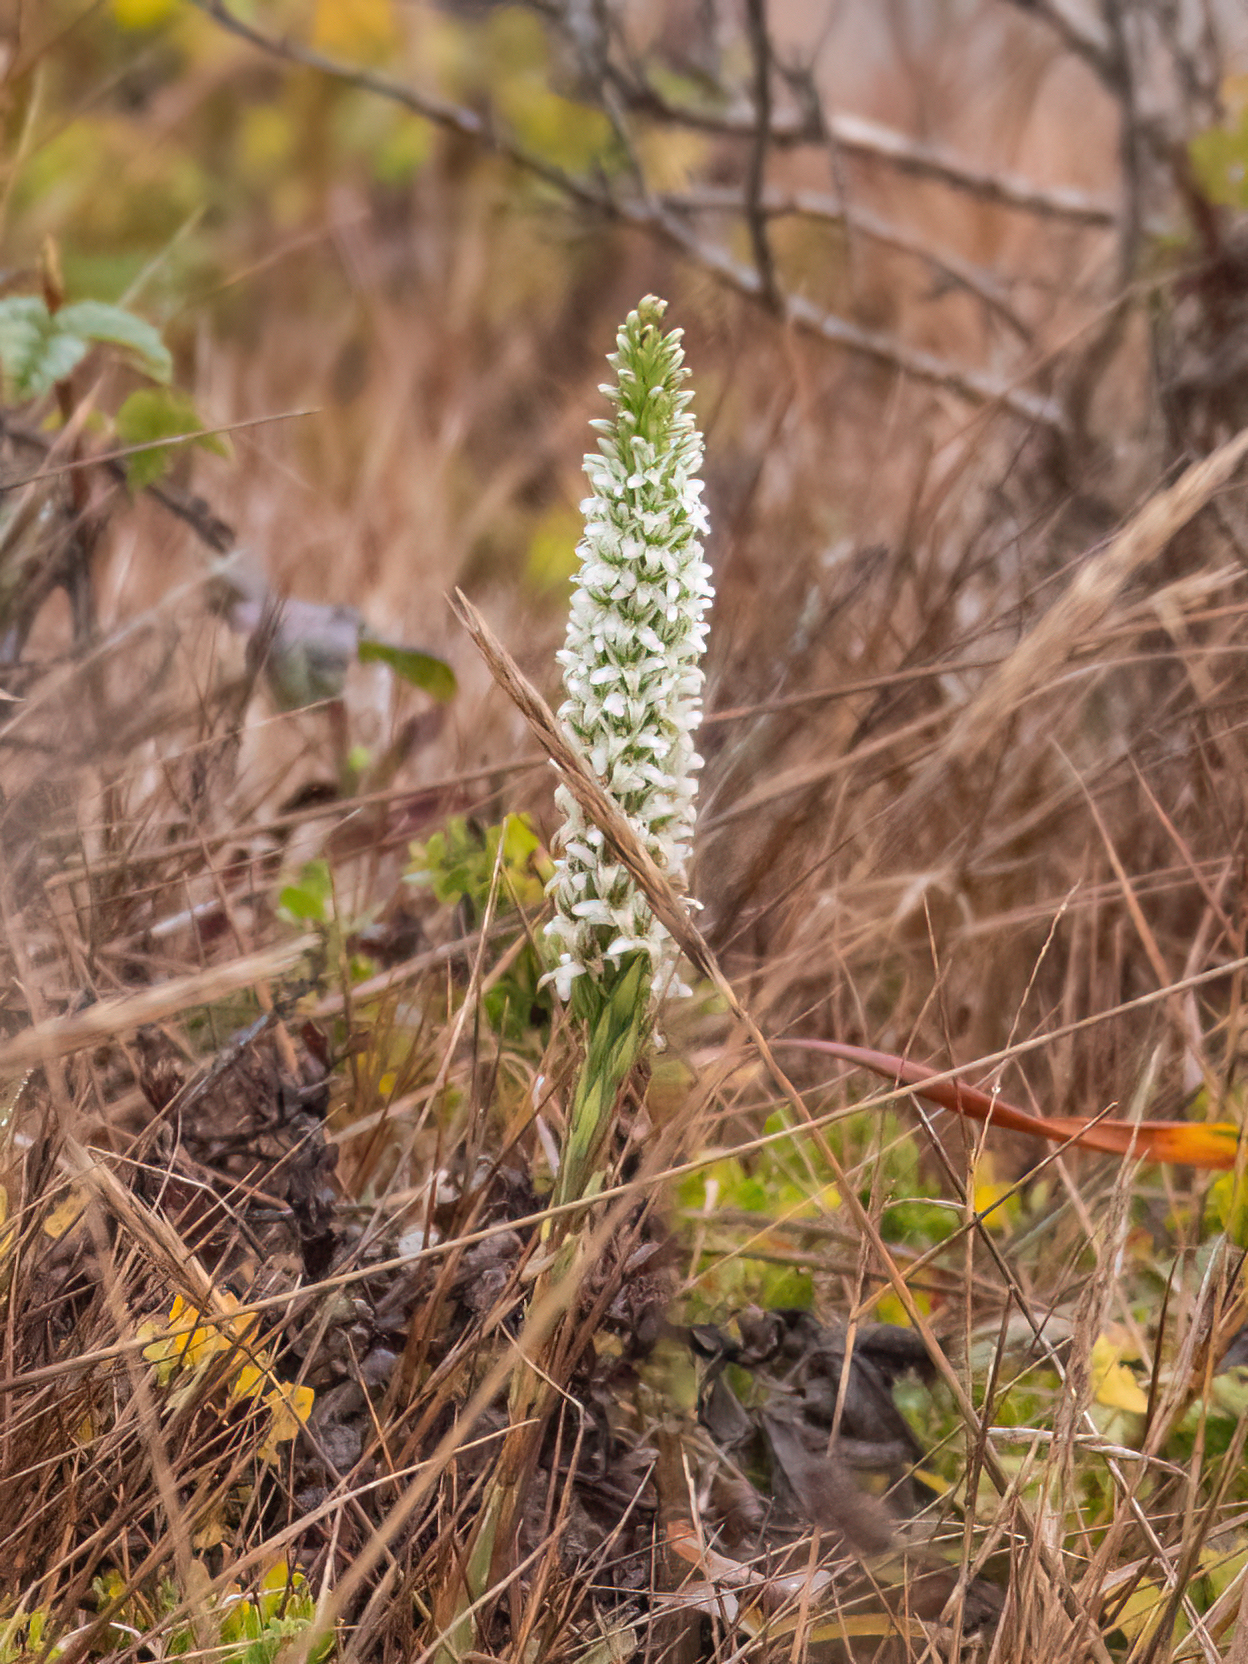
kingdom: Plantae
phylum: Tracheophyta
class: Liliopsida
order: Asparagales
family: Orchidaceae
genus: Platanthera
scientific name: Platanthera elegans
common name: Coast piperia
